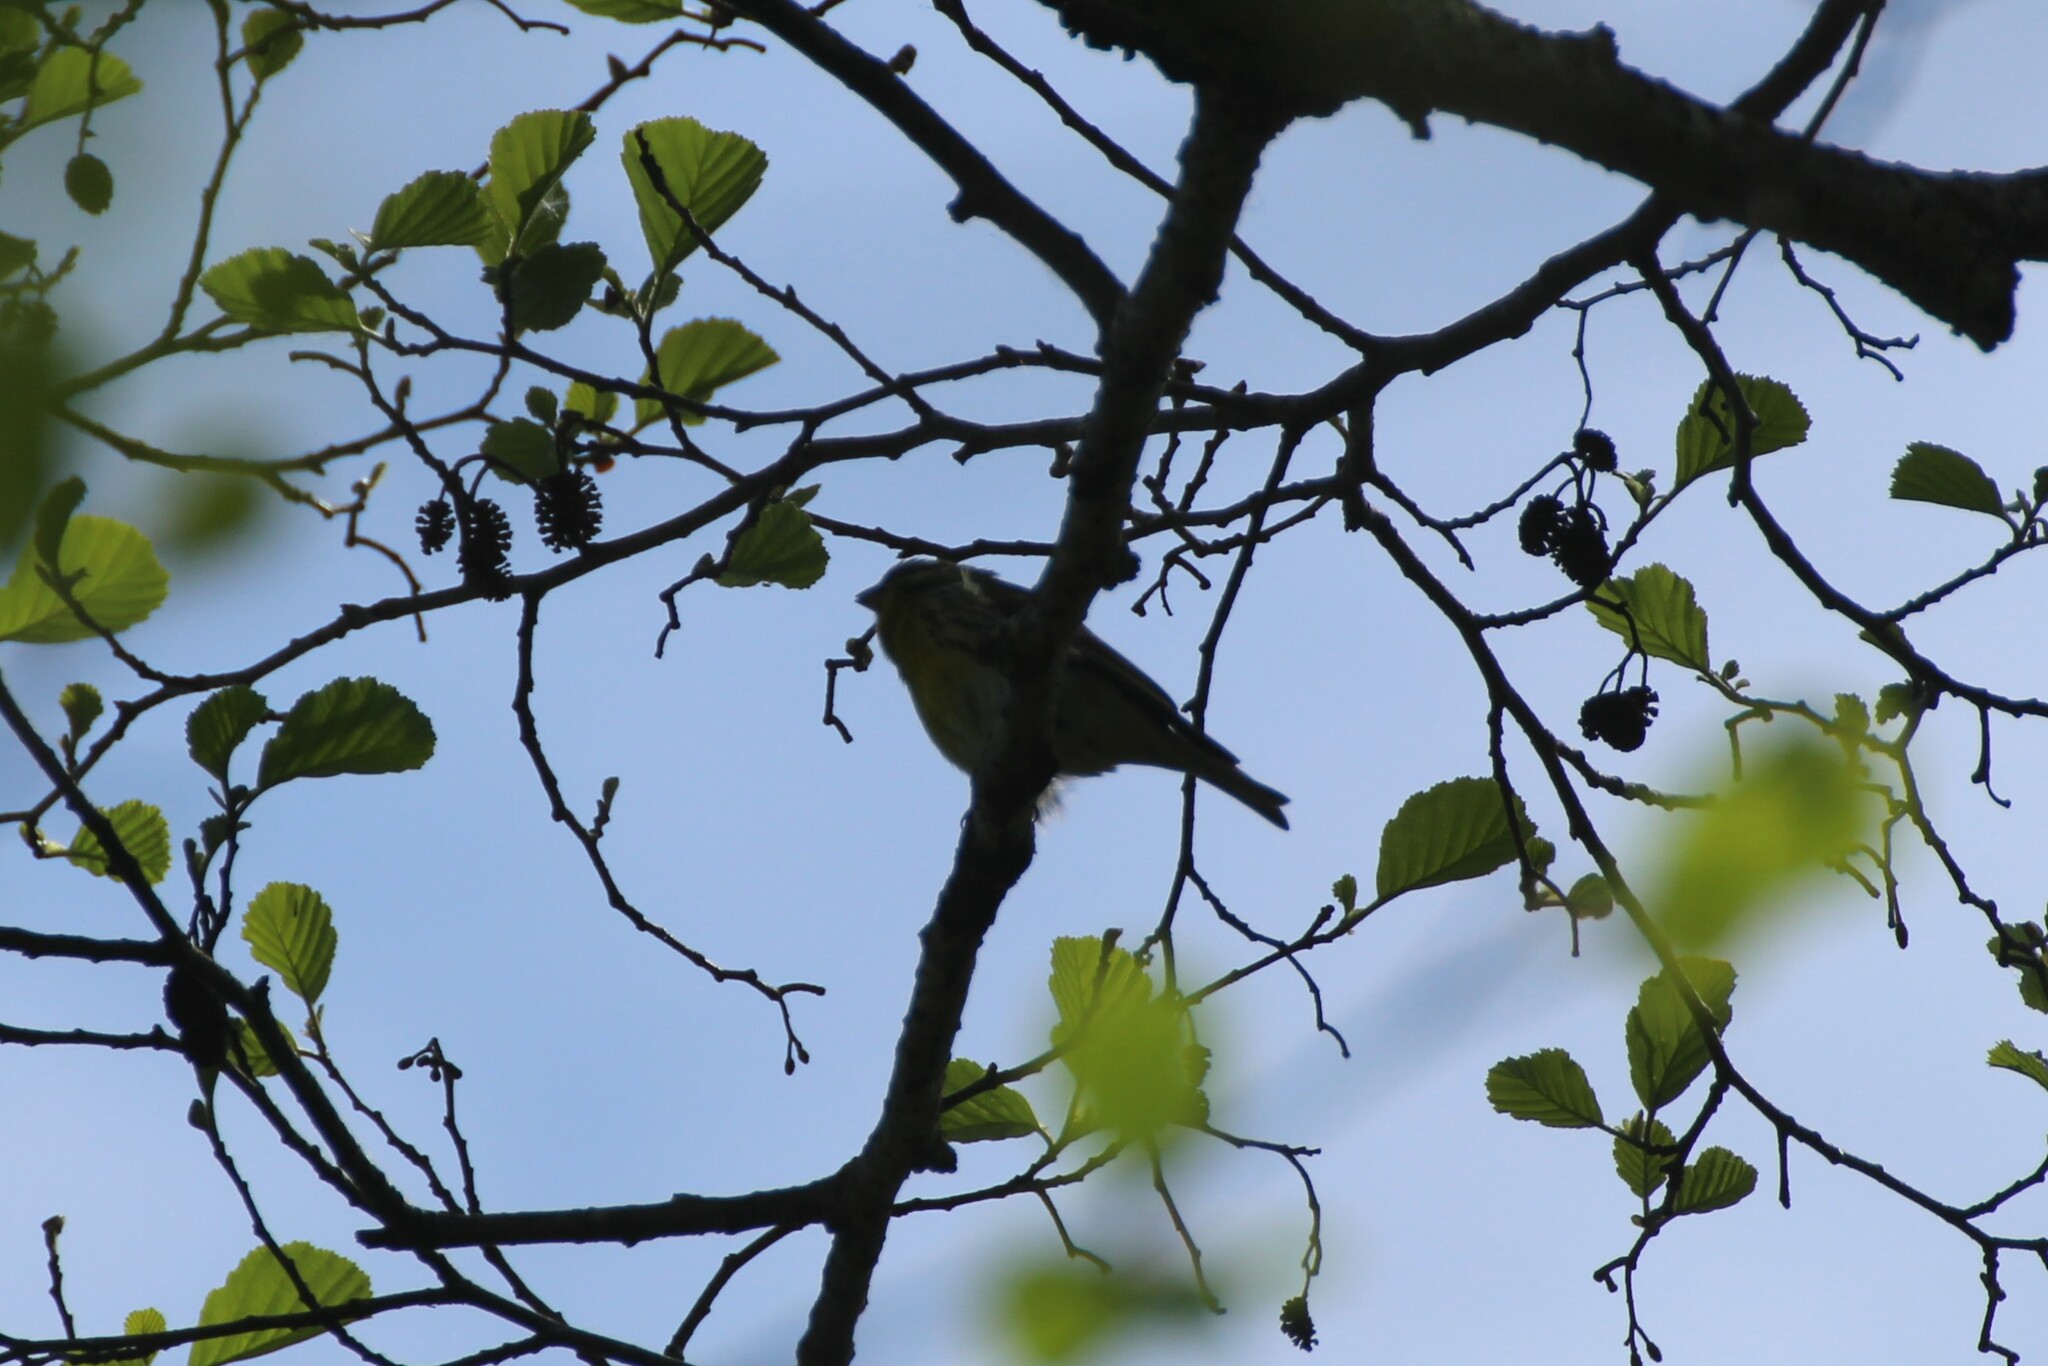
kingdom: Animalia
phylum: Chordata
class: Aves
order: Passeriformes
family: Fringillidae
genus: Serinus
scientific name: Serinus serinus
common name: European serin
